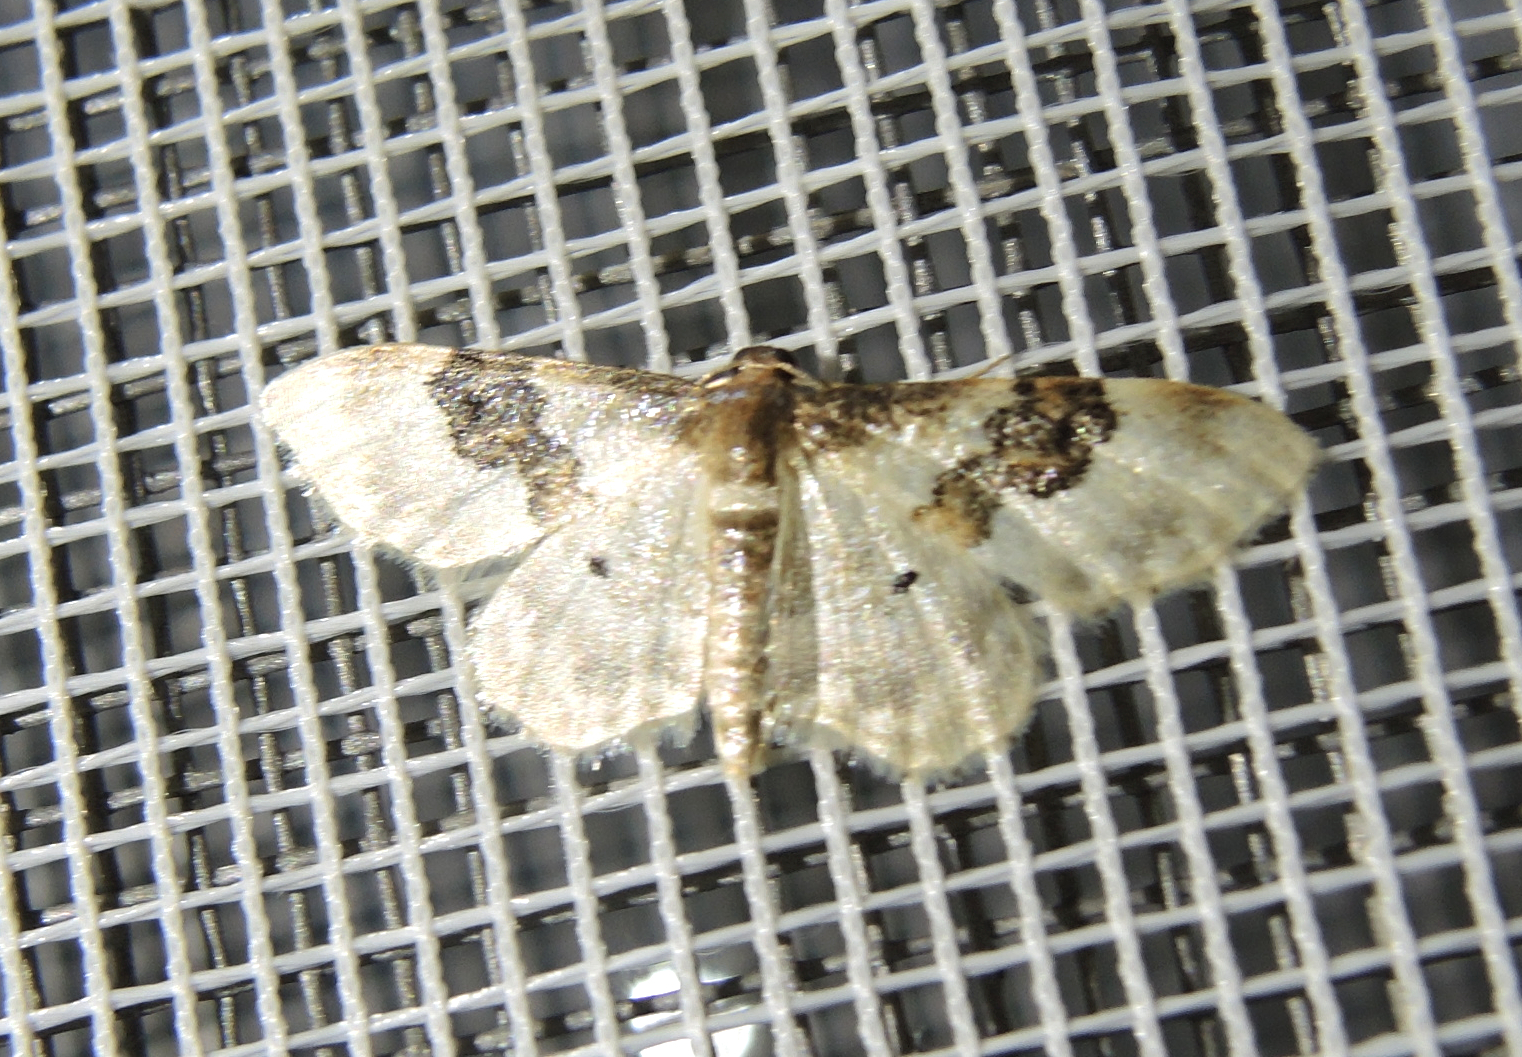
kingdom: Animalia
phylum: Arthropoda
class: Insecta
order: Lepidoptera
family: Geometridae
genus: Idaea
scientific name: Idaea rusticata
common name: Least carpet
